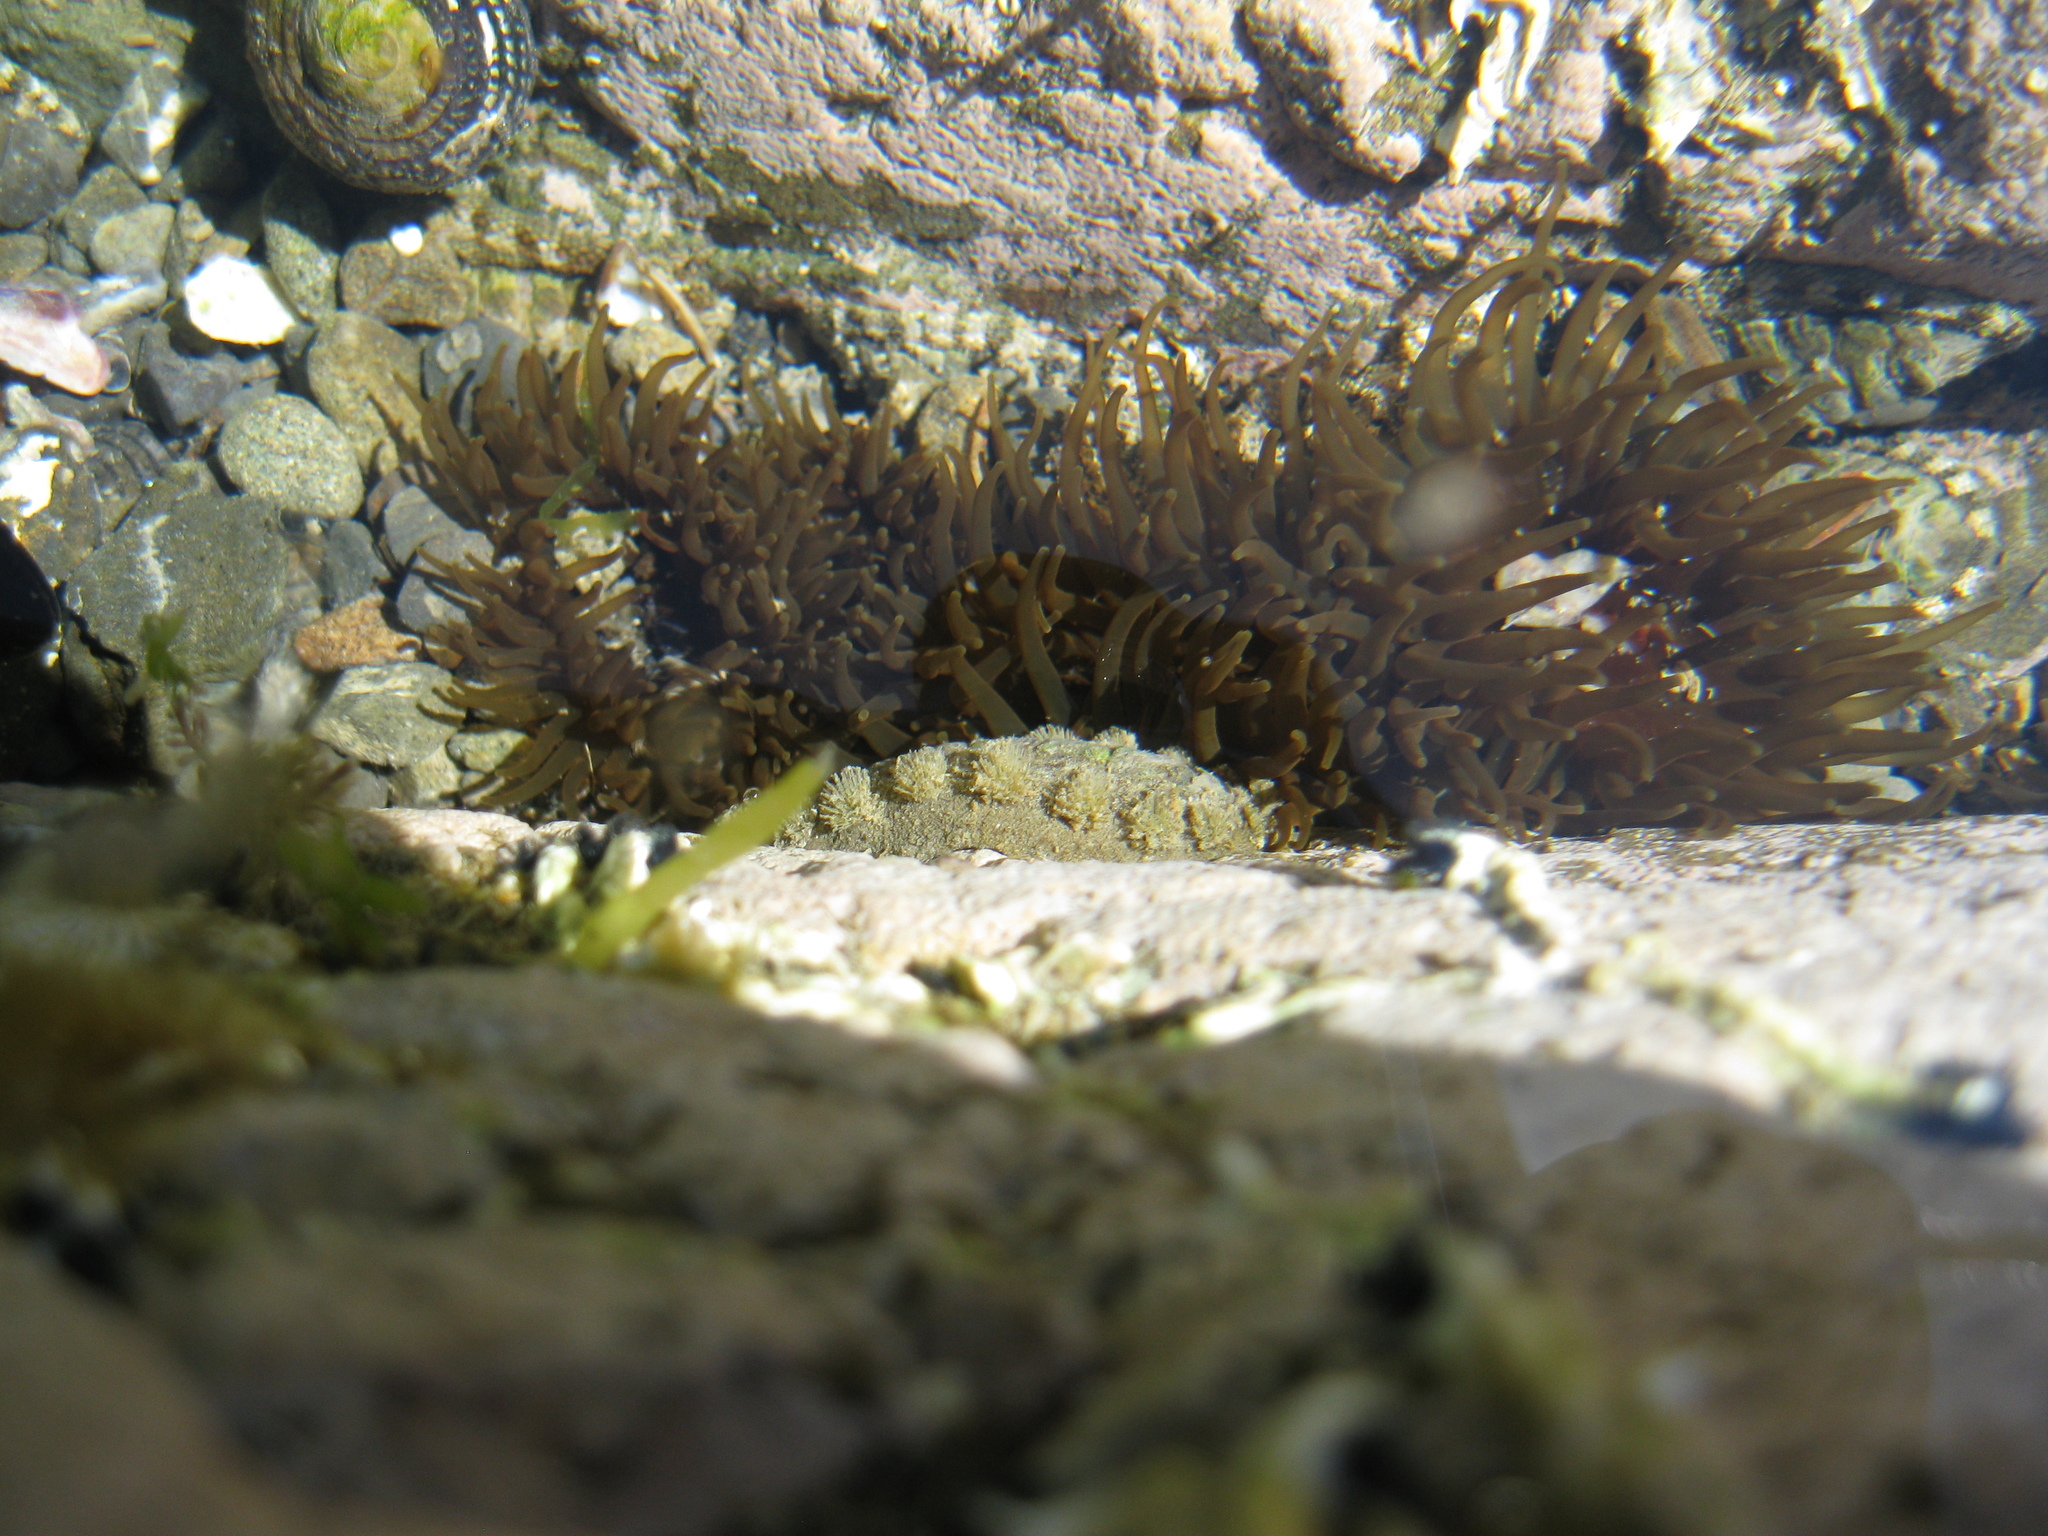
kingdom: Animalia
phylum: Mollusca
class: Polyplacophora
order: Chitonida
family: Acanthochitonidae
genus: Acanthochitona
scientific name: Acanthochitona zelandica
